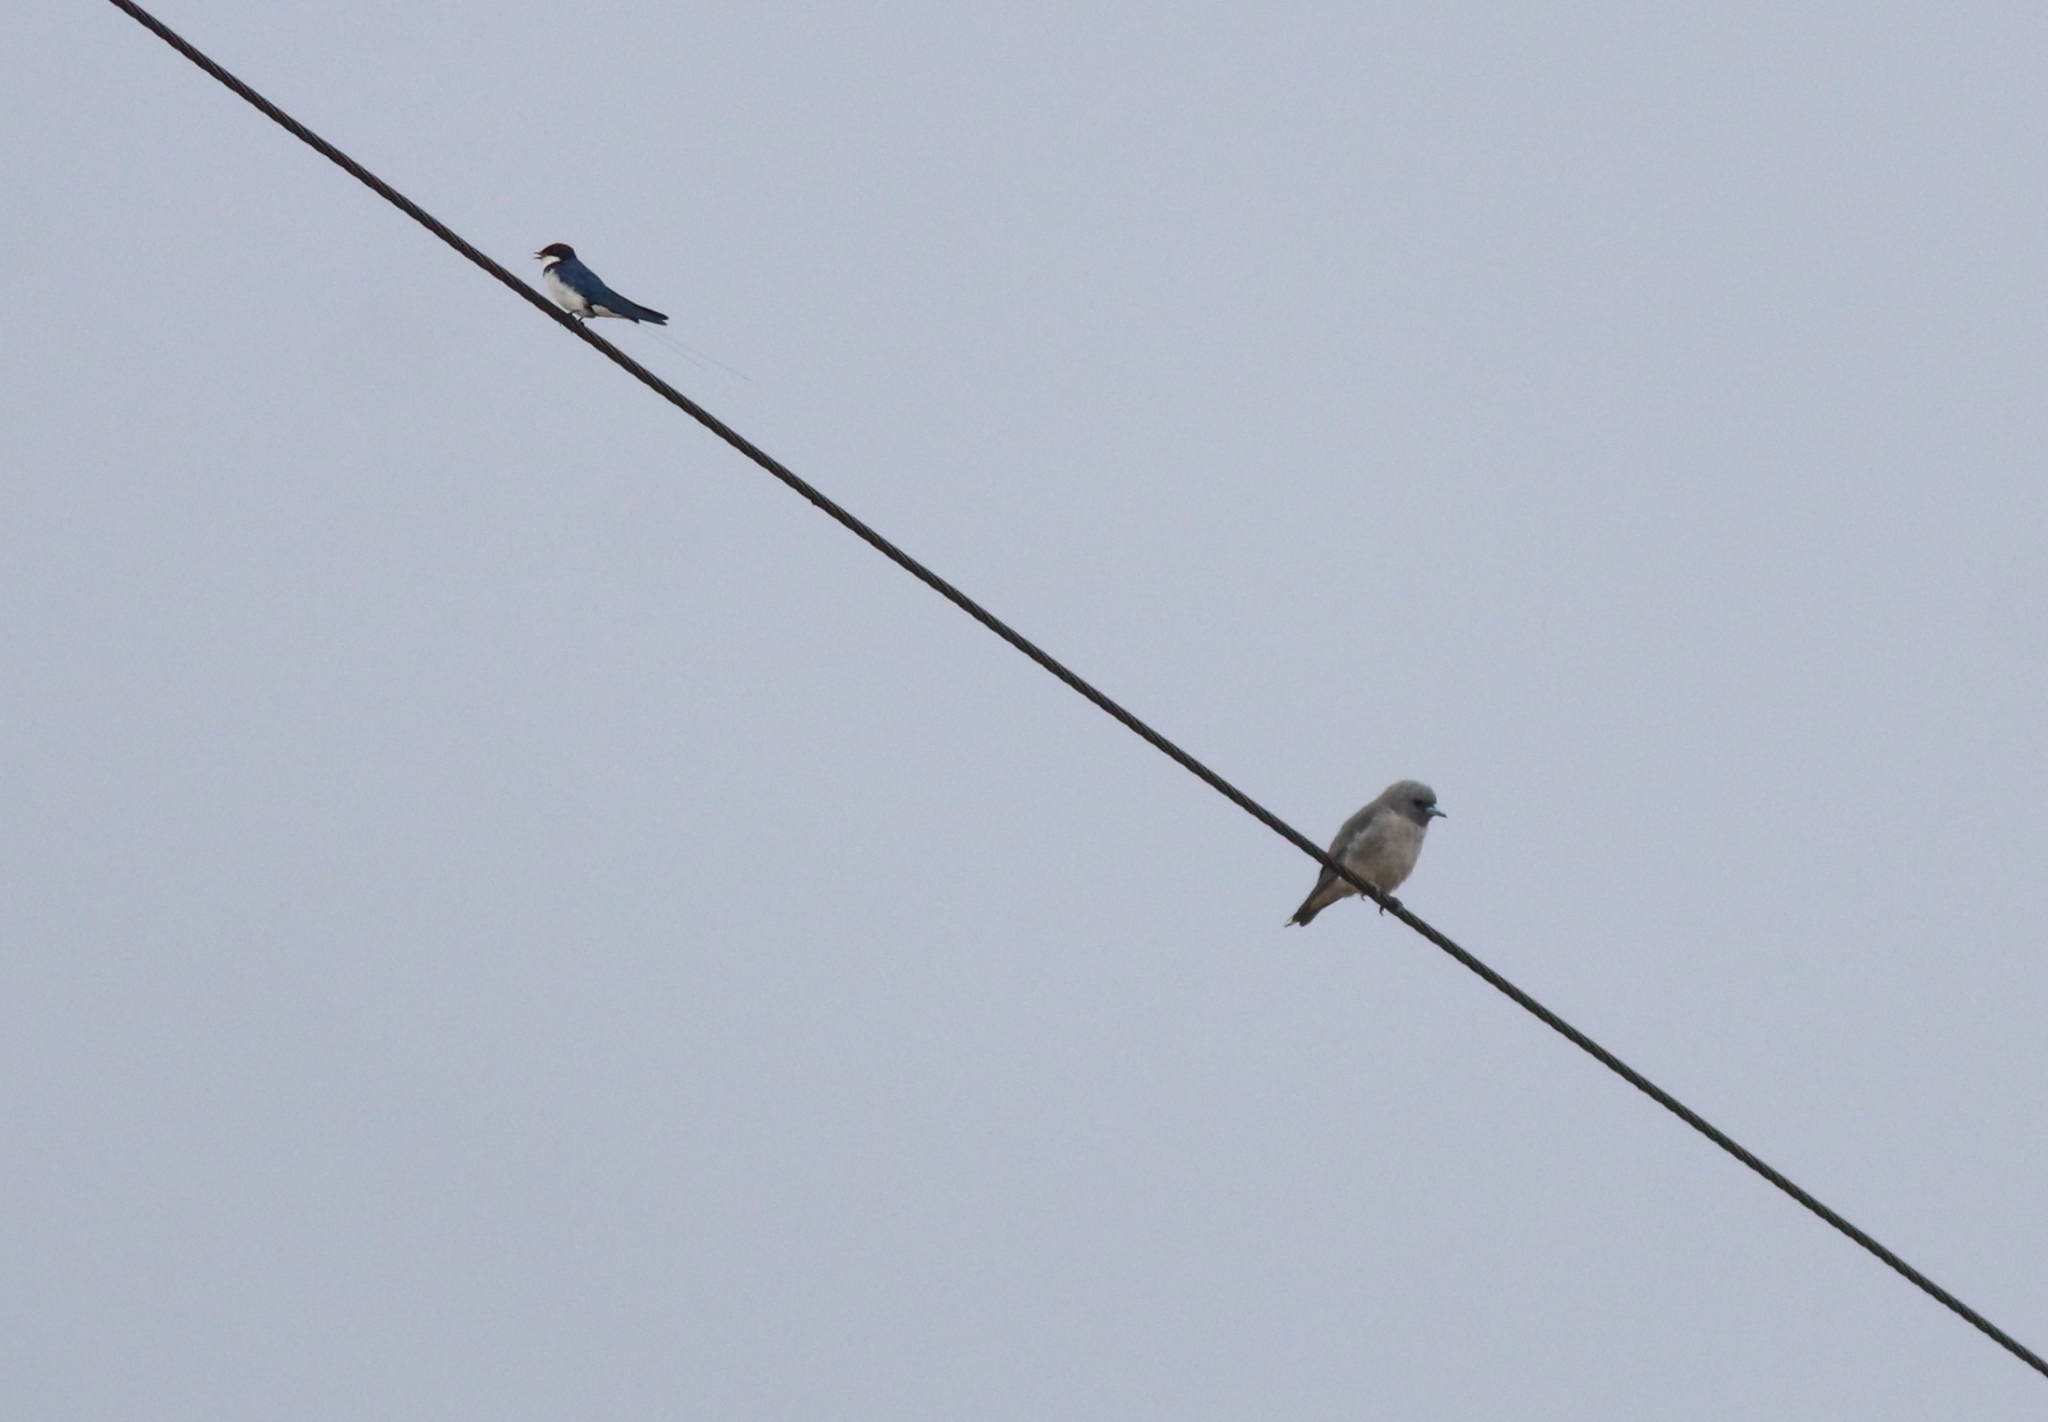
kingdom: Animalia
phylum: Chordata
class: Aves
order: Passeriformes
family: Artamidae
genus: Artamus
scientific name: Artamus fuscus
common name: Ashy woodswallow
